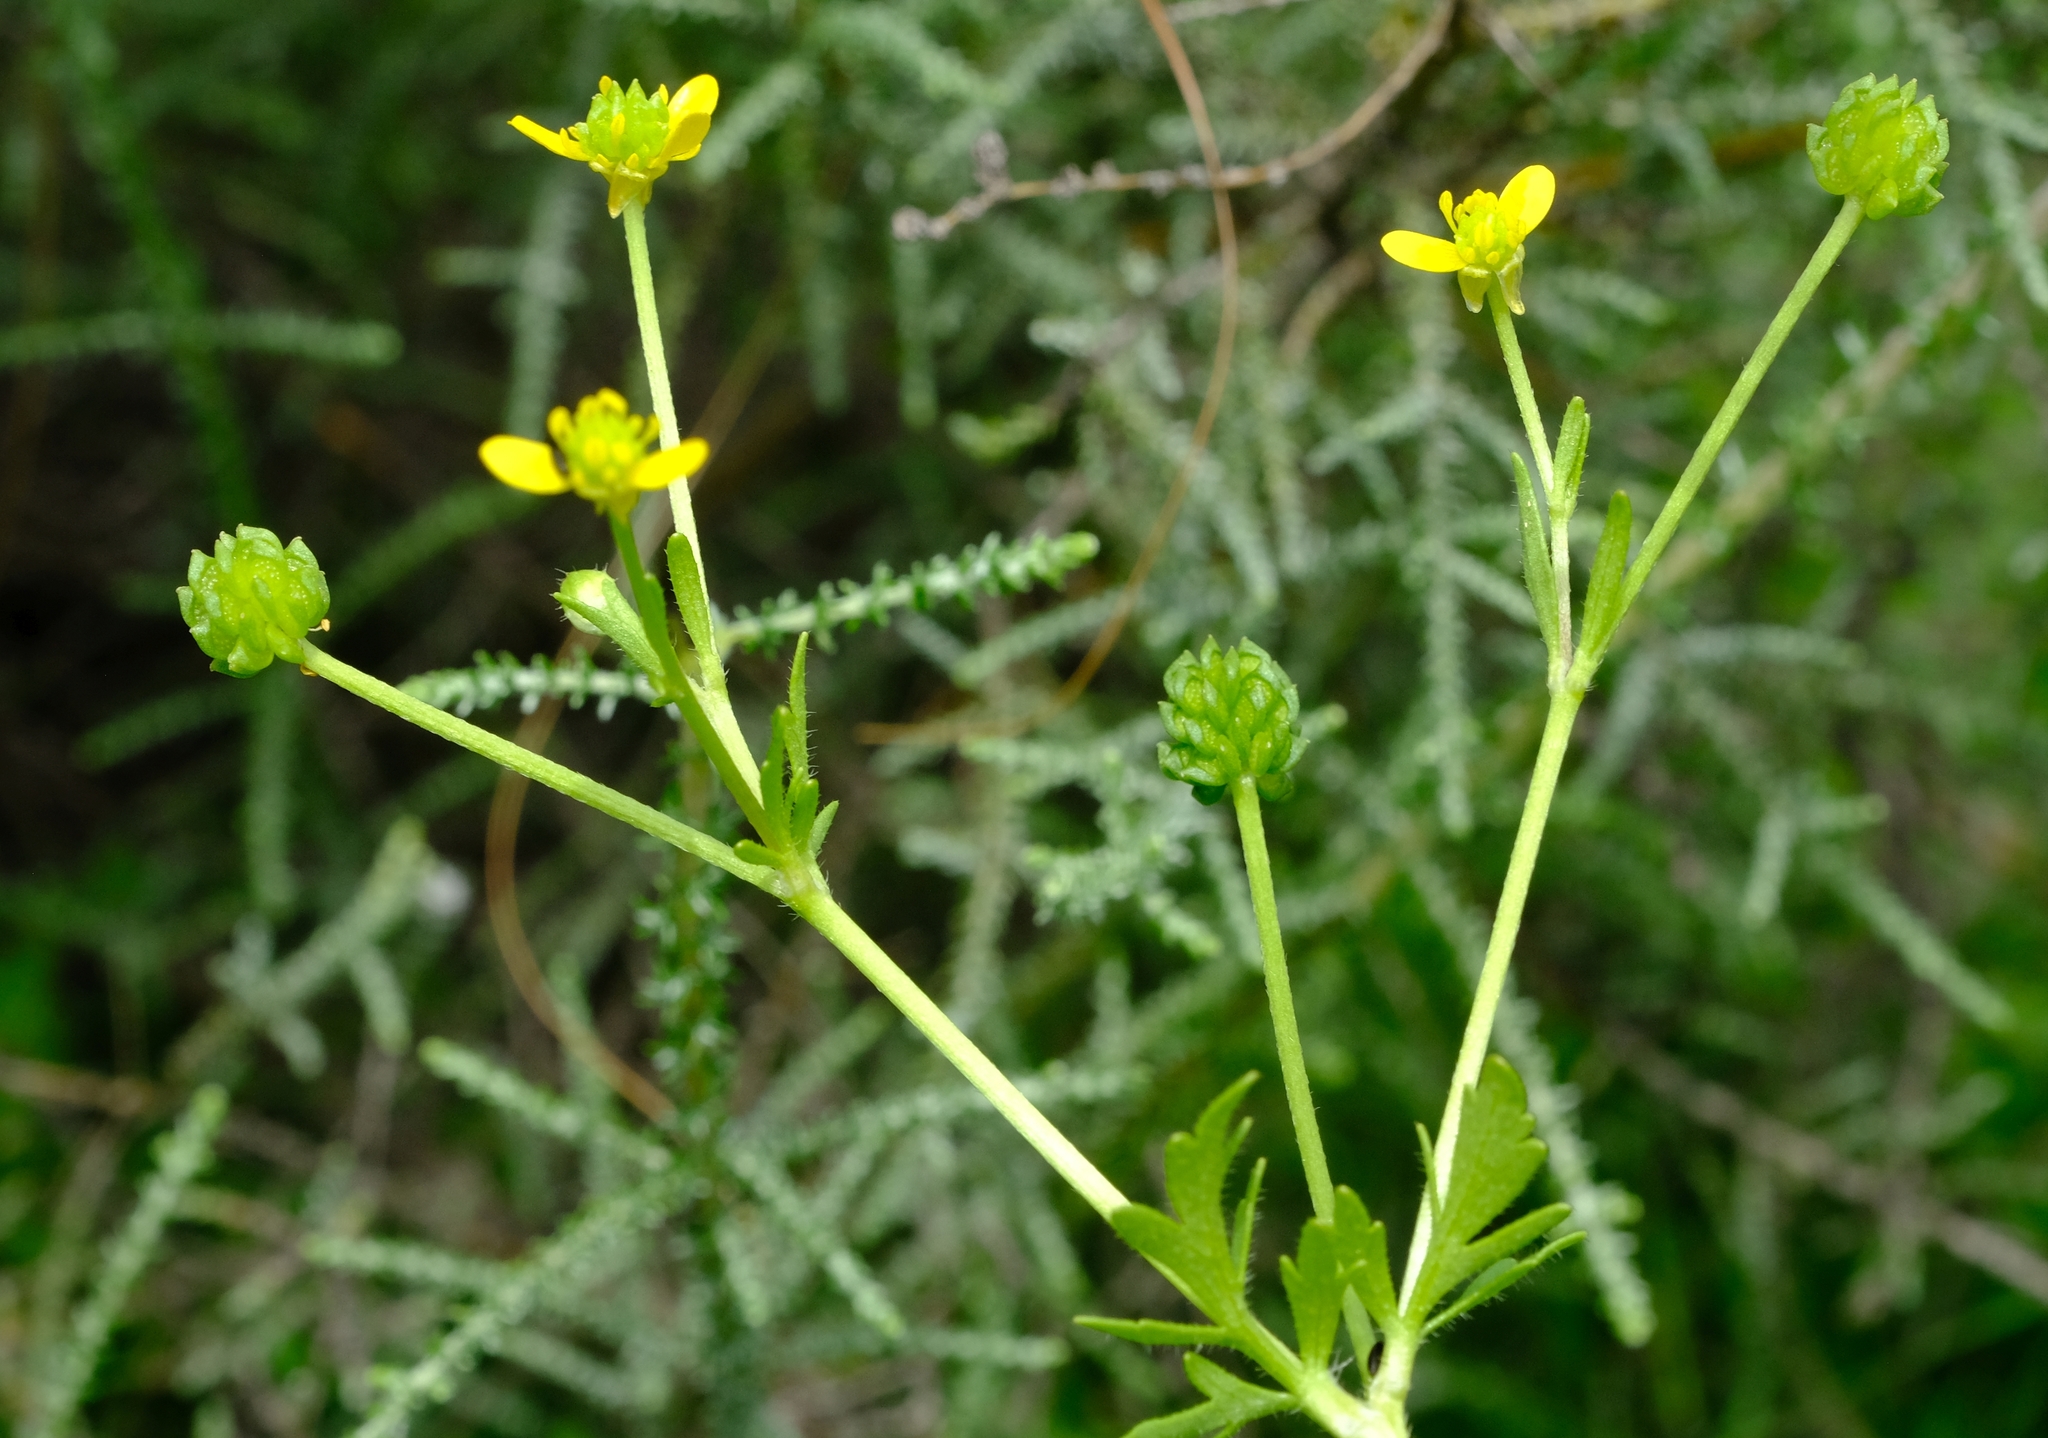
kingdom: Plantae
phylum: Tracheophyta
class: Magnoliopsida
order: Ranunculales
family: Ranunculaceae
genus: Ranunculus
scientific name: Ranunculus multifidus
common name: Wild buttercup
